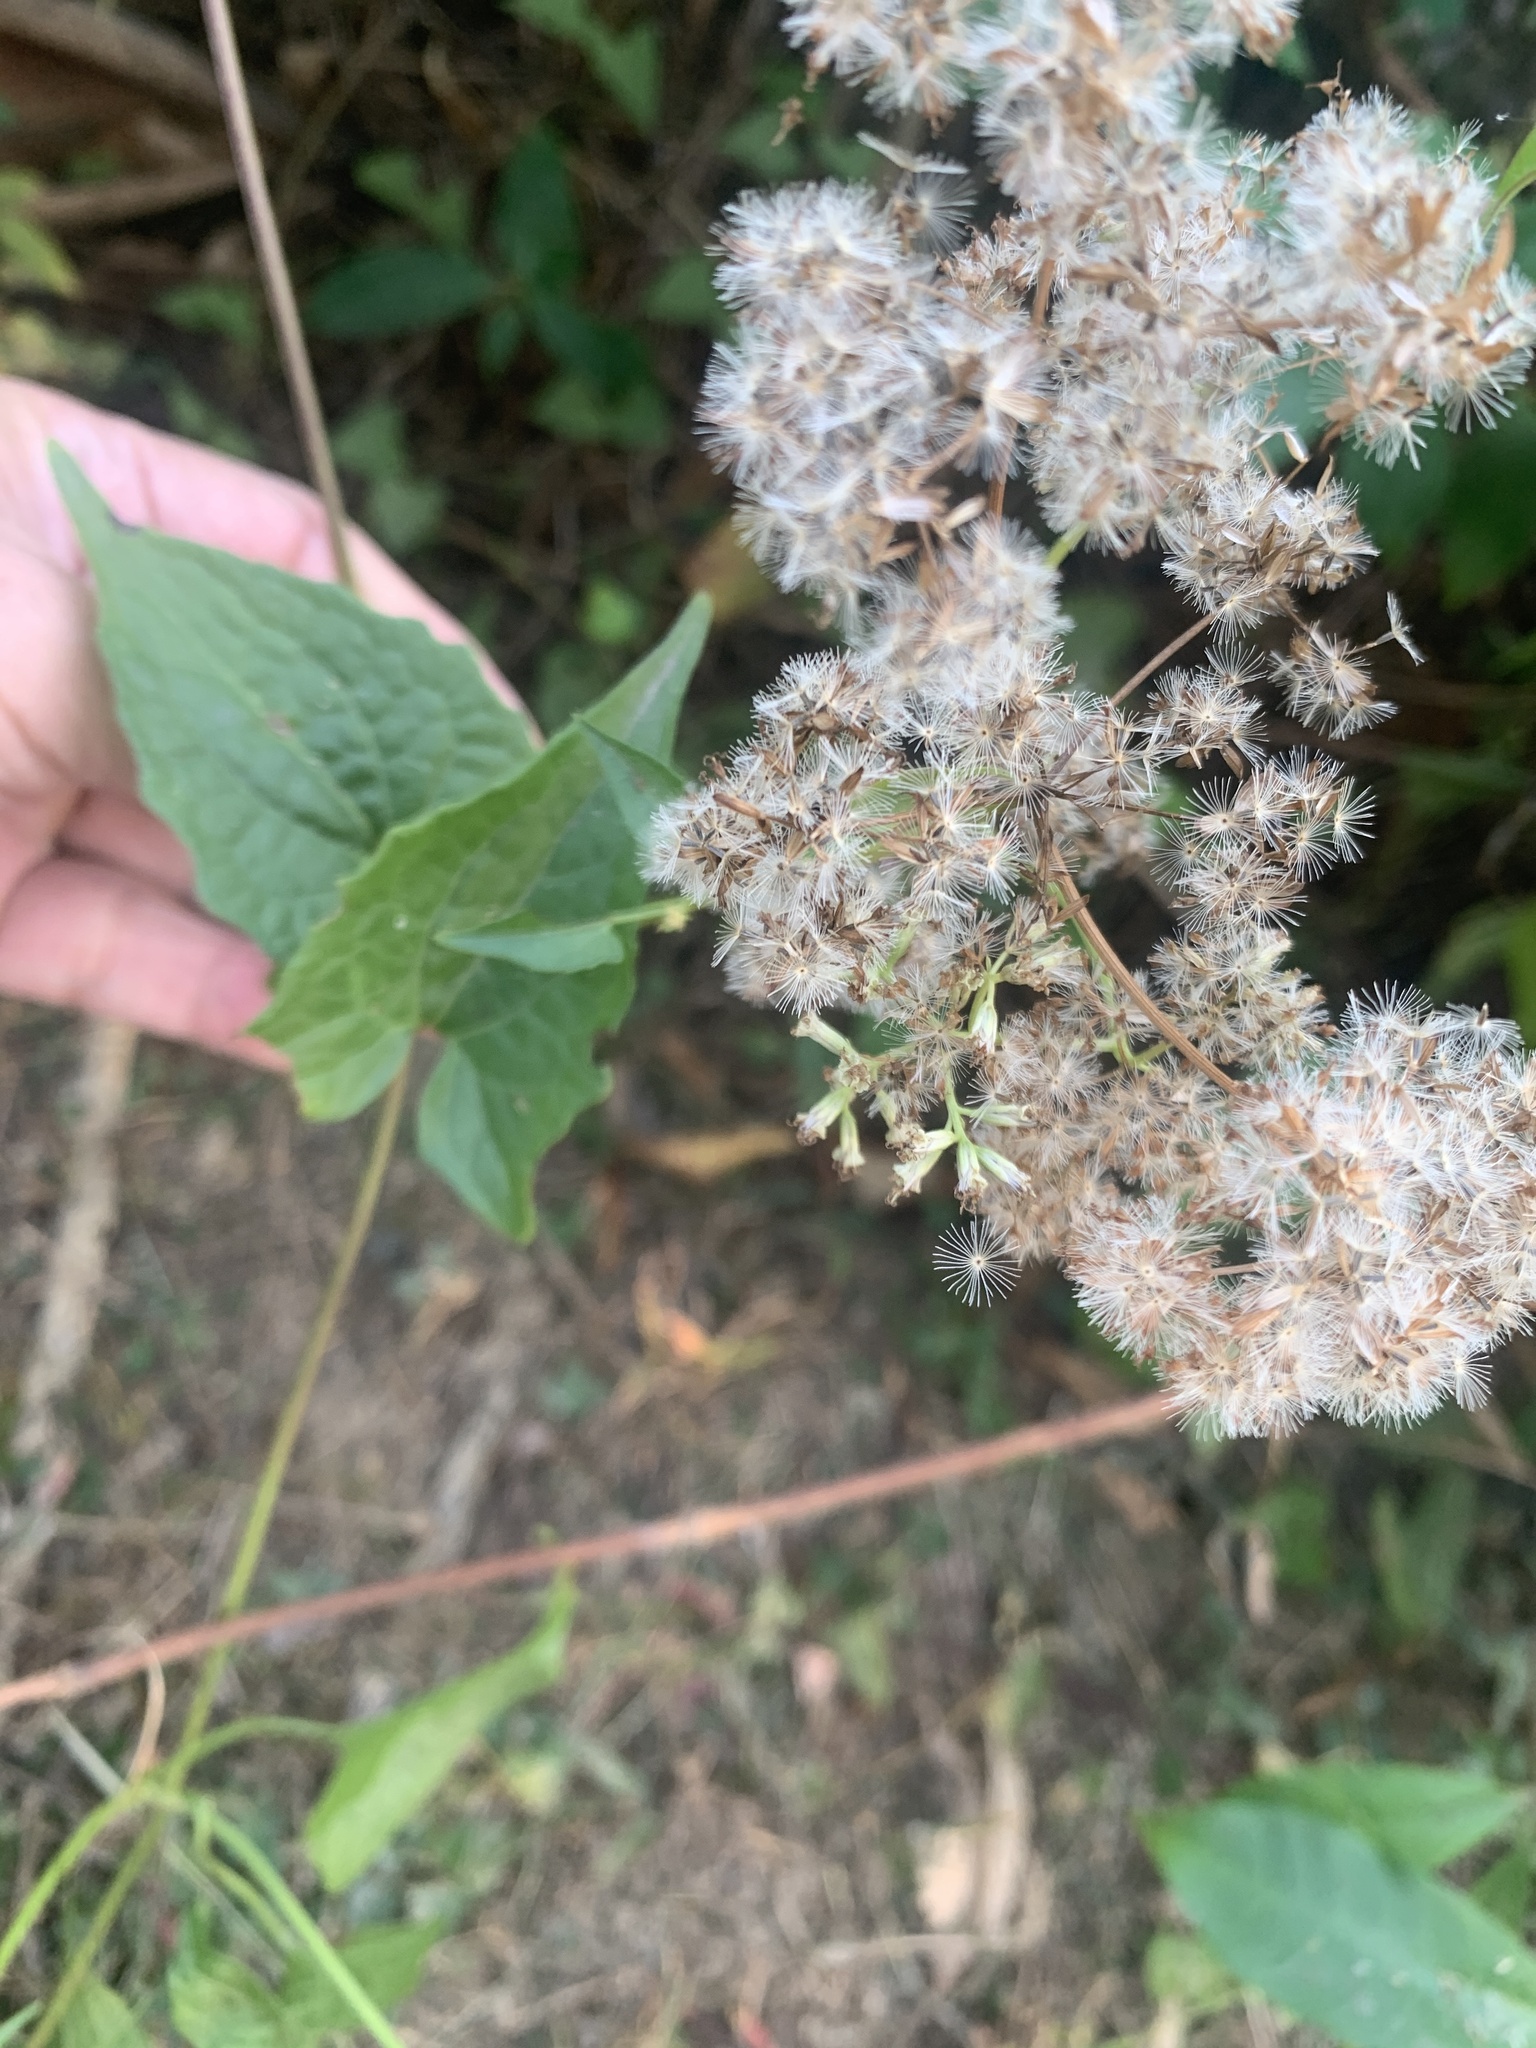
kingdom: Plantae
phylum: Tracheophyta
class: Magnoliopsida
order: Asterales
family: Asteraceae
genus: Mikania
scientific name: Mikania micrantha
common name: Mile-a-minute
